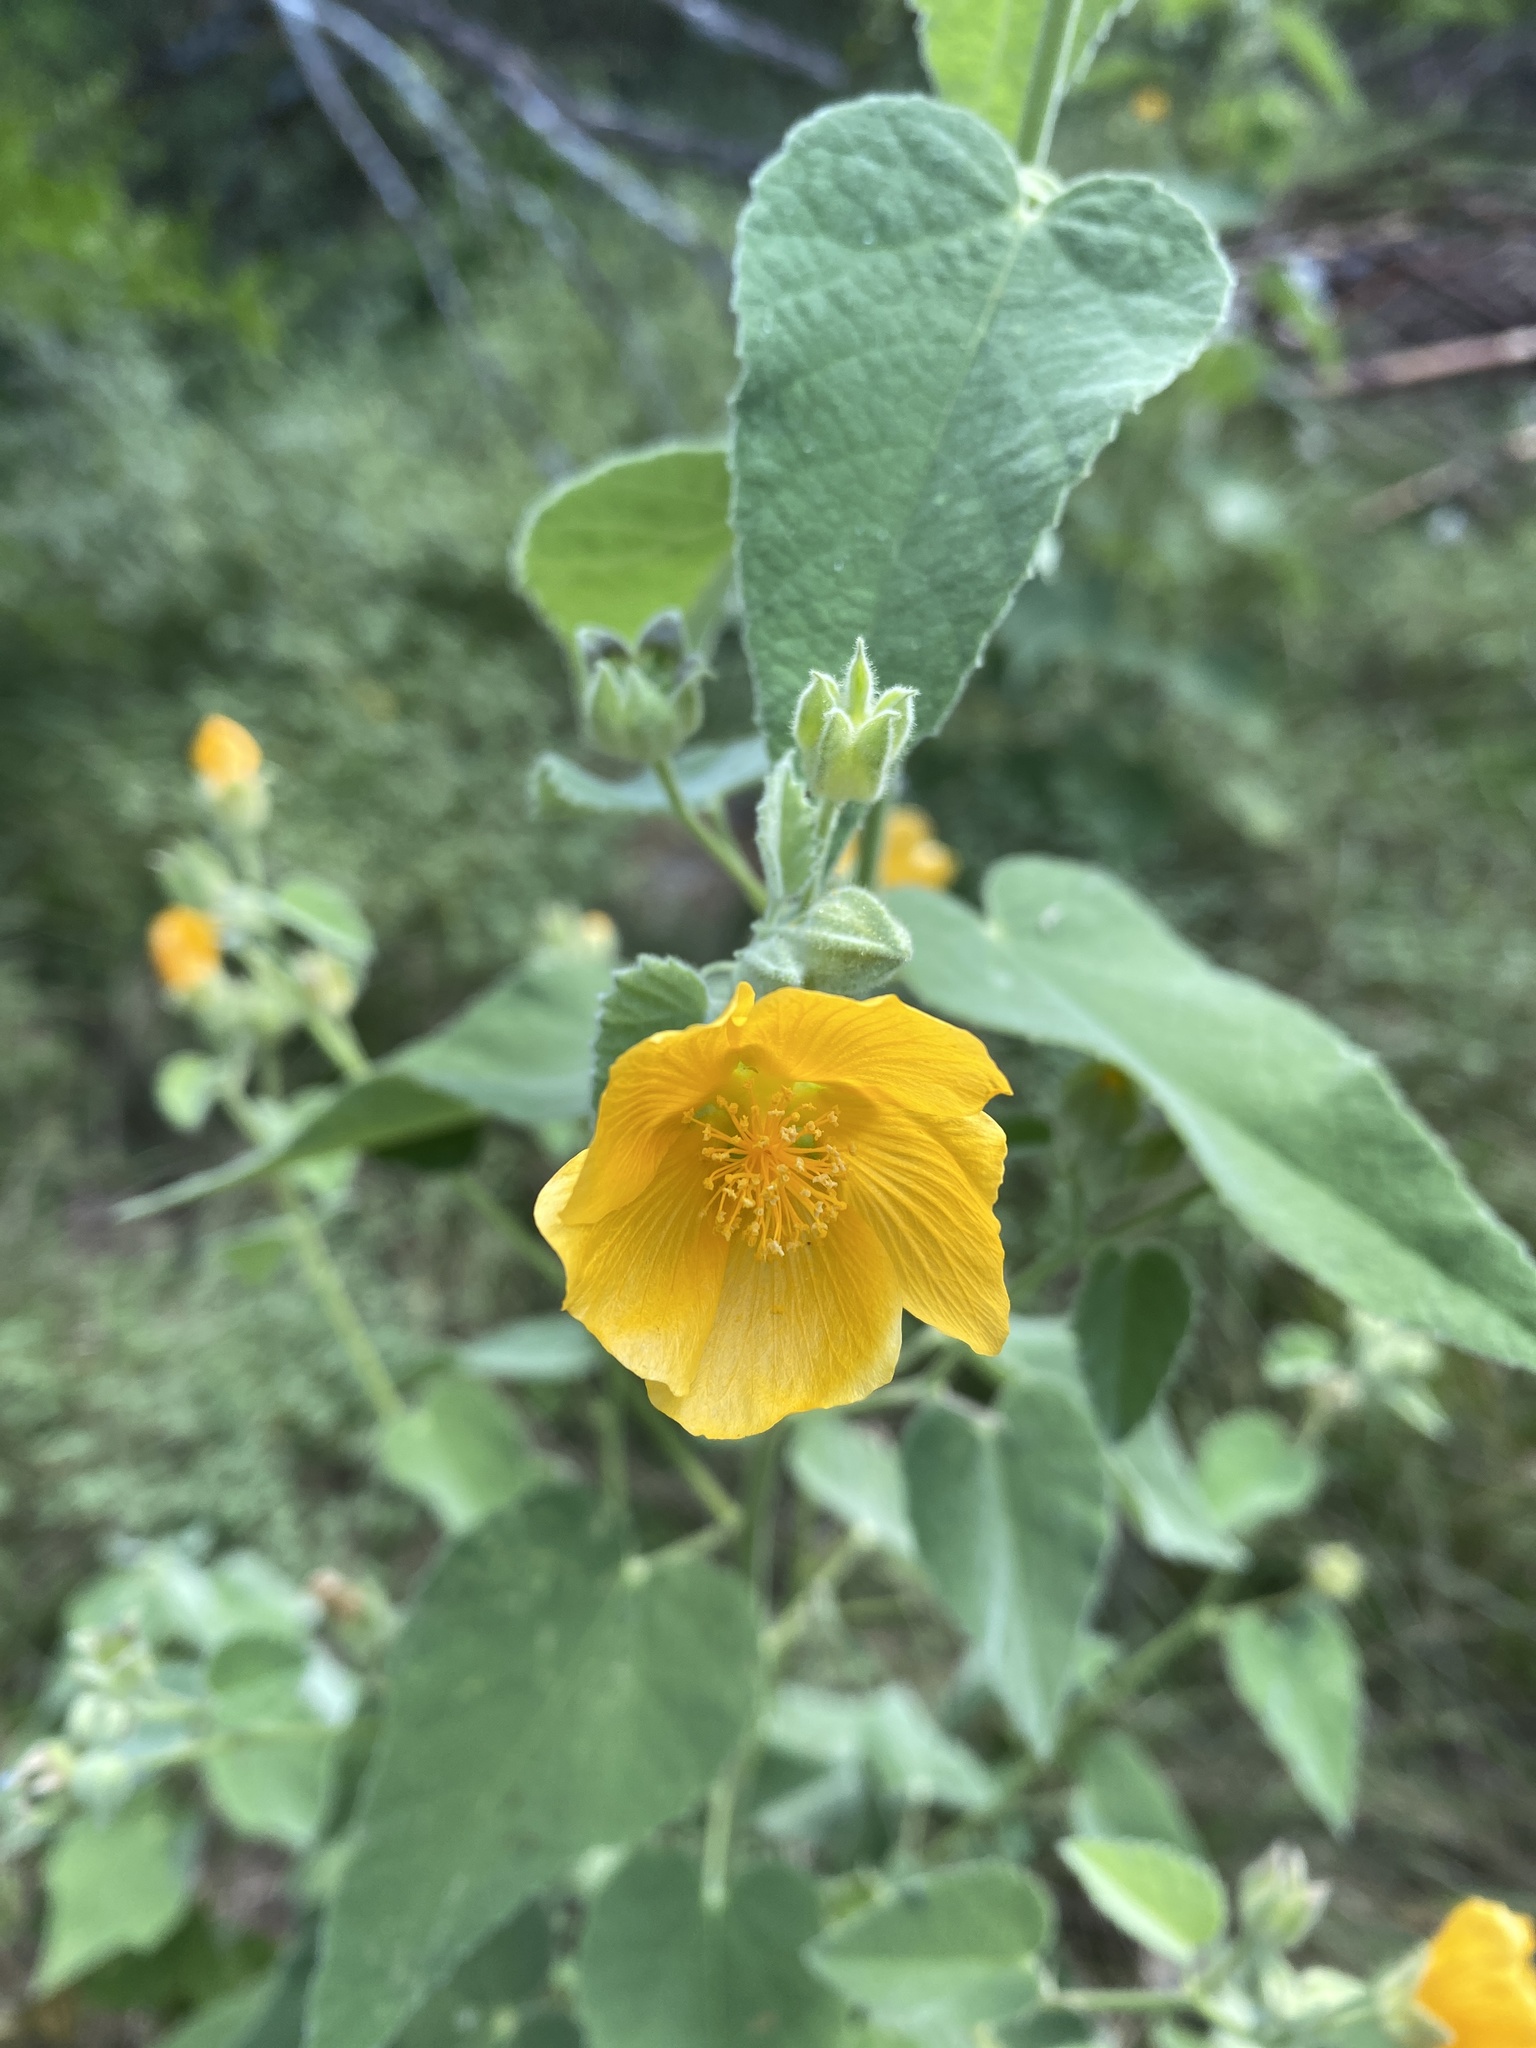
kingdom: Plantae
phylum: Tracheophyta
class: Magnoliopsida
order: Malvales
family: Malvaceae
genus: Allowissadula
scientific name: Allowissadula holosericea
